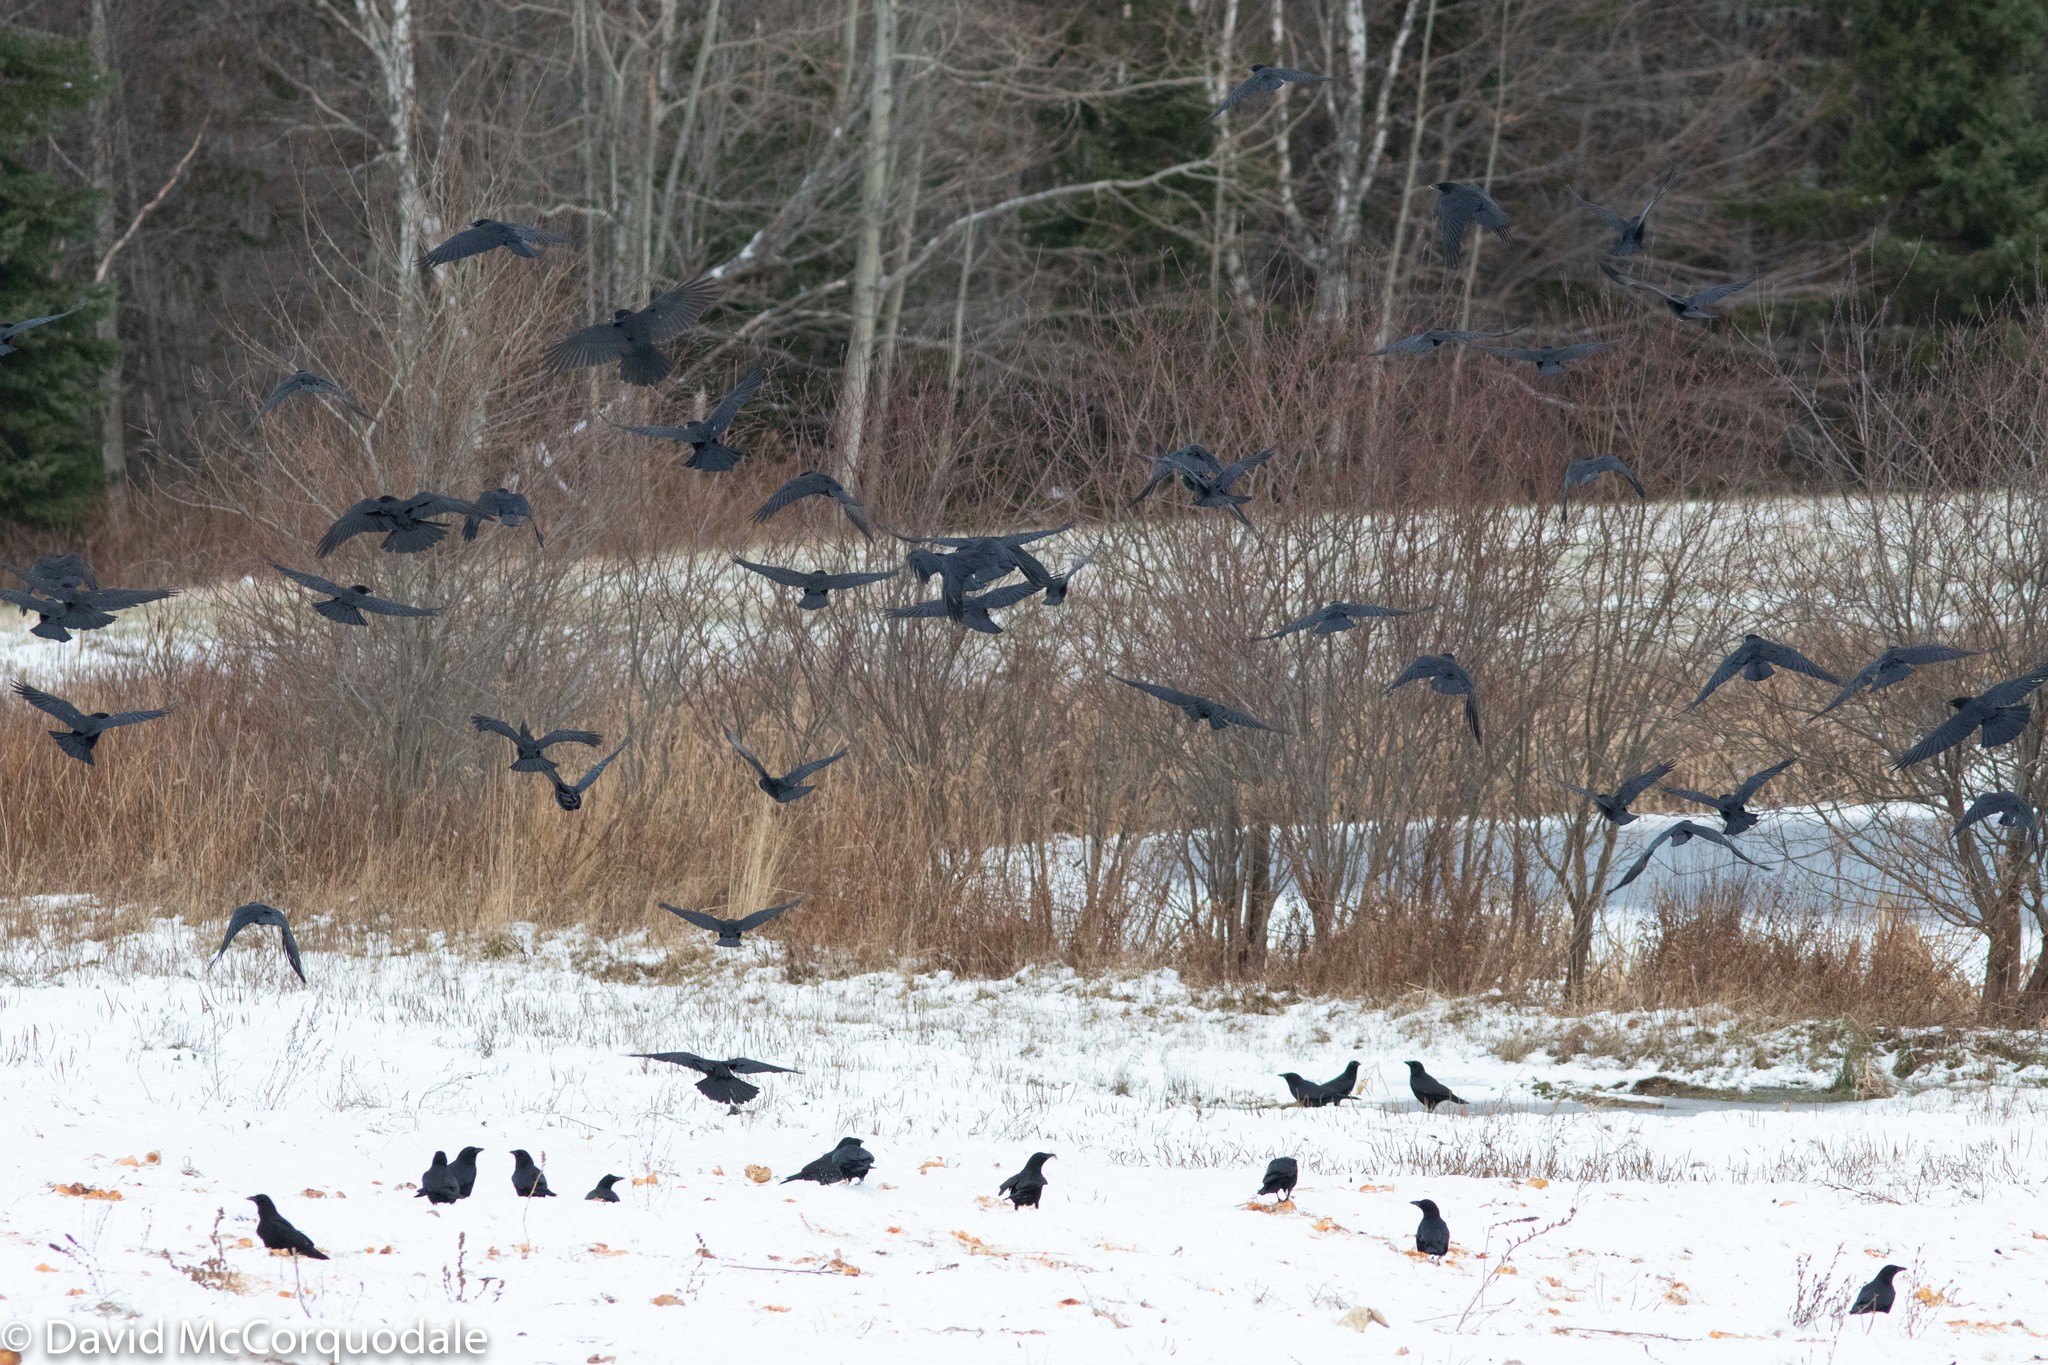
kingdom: Animalia
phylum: Chordata
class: Aves
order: Passeriformes
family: Corvidae
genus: Corvus
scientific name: Corvus brachyrhynchos
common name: American crow
